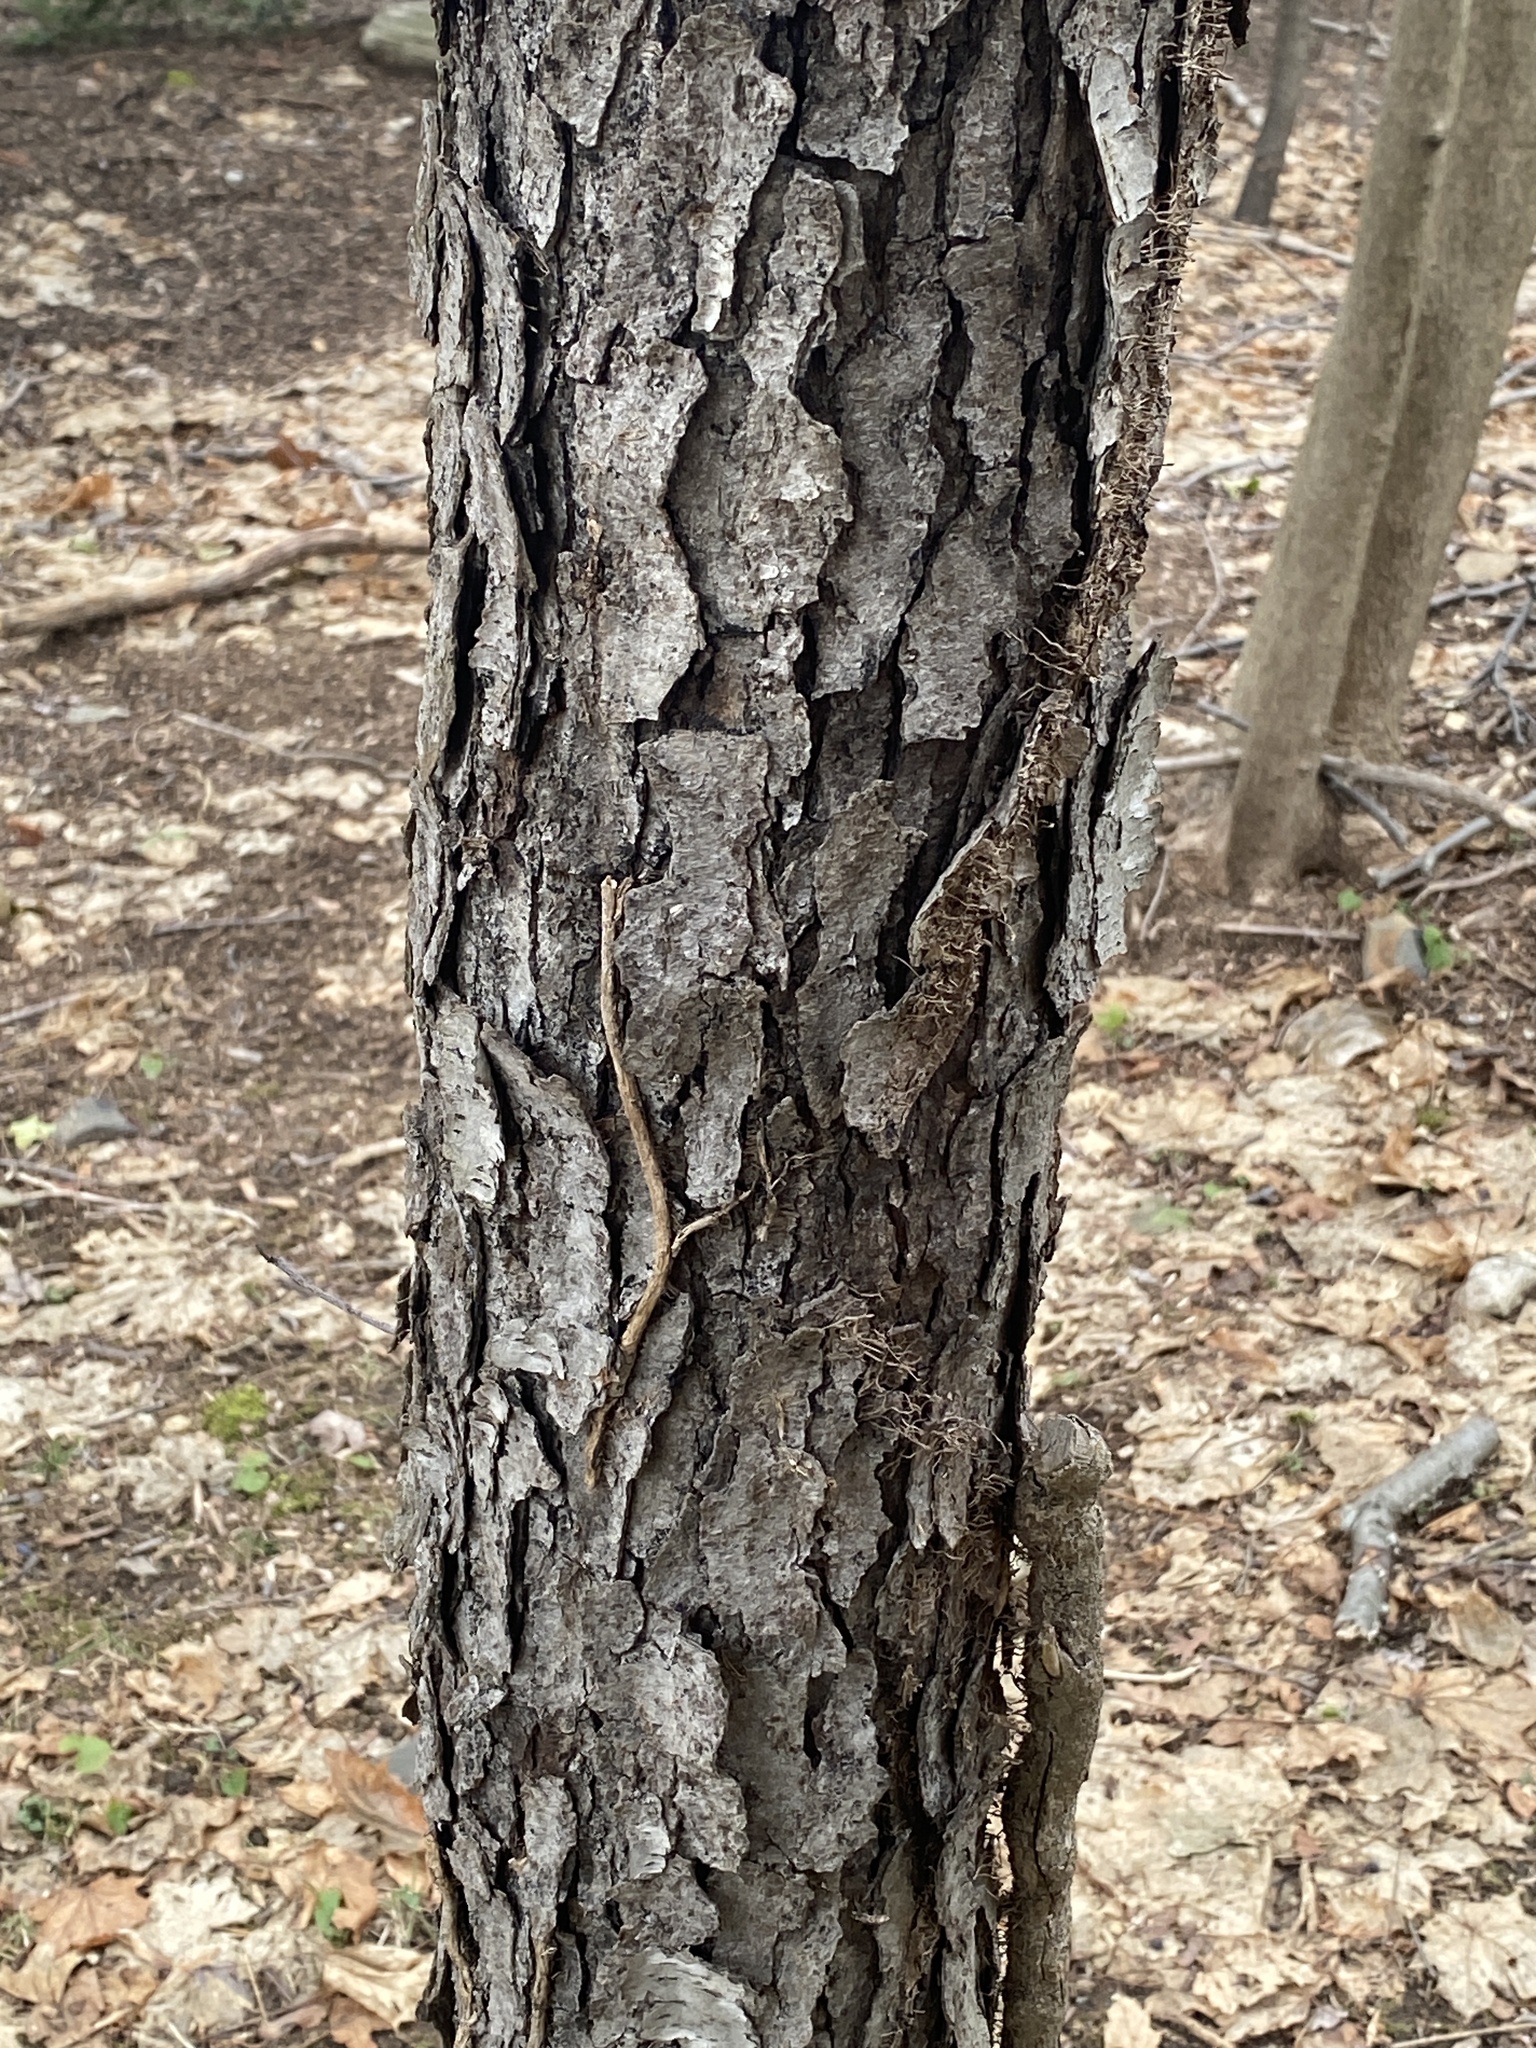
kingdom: Plantae
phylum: Tracheophyta
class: Magnoliopsida
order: Rosales
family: Rosaceae
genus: Prunus
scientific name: Prunus serotina
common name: Black cherry
